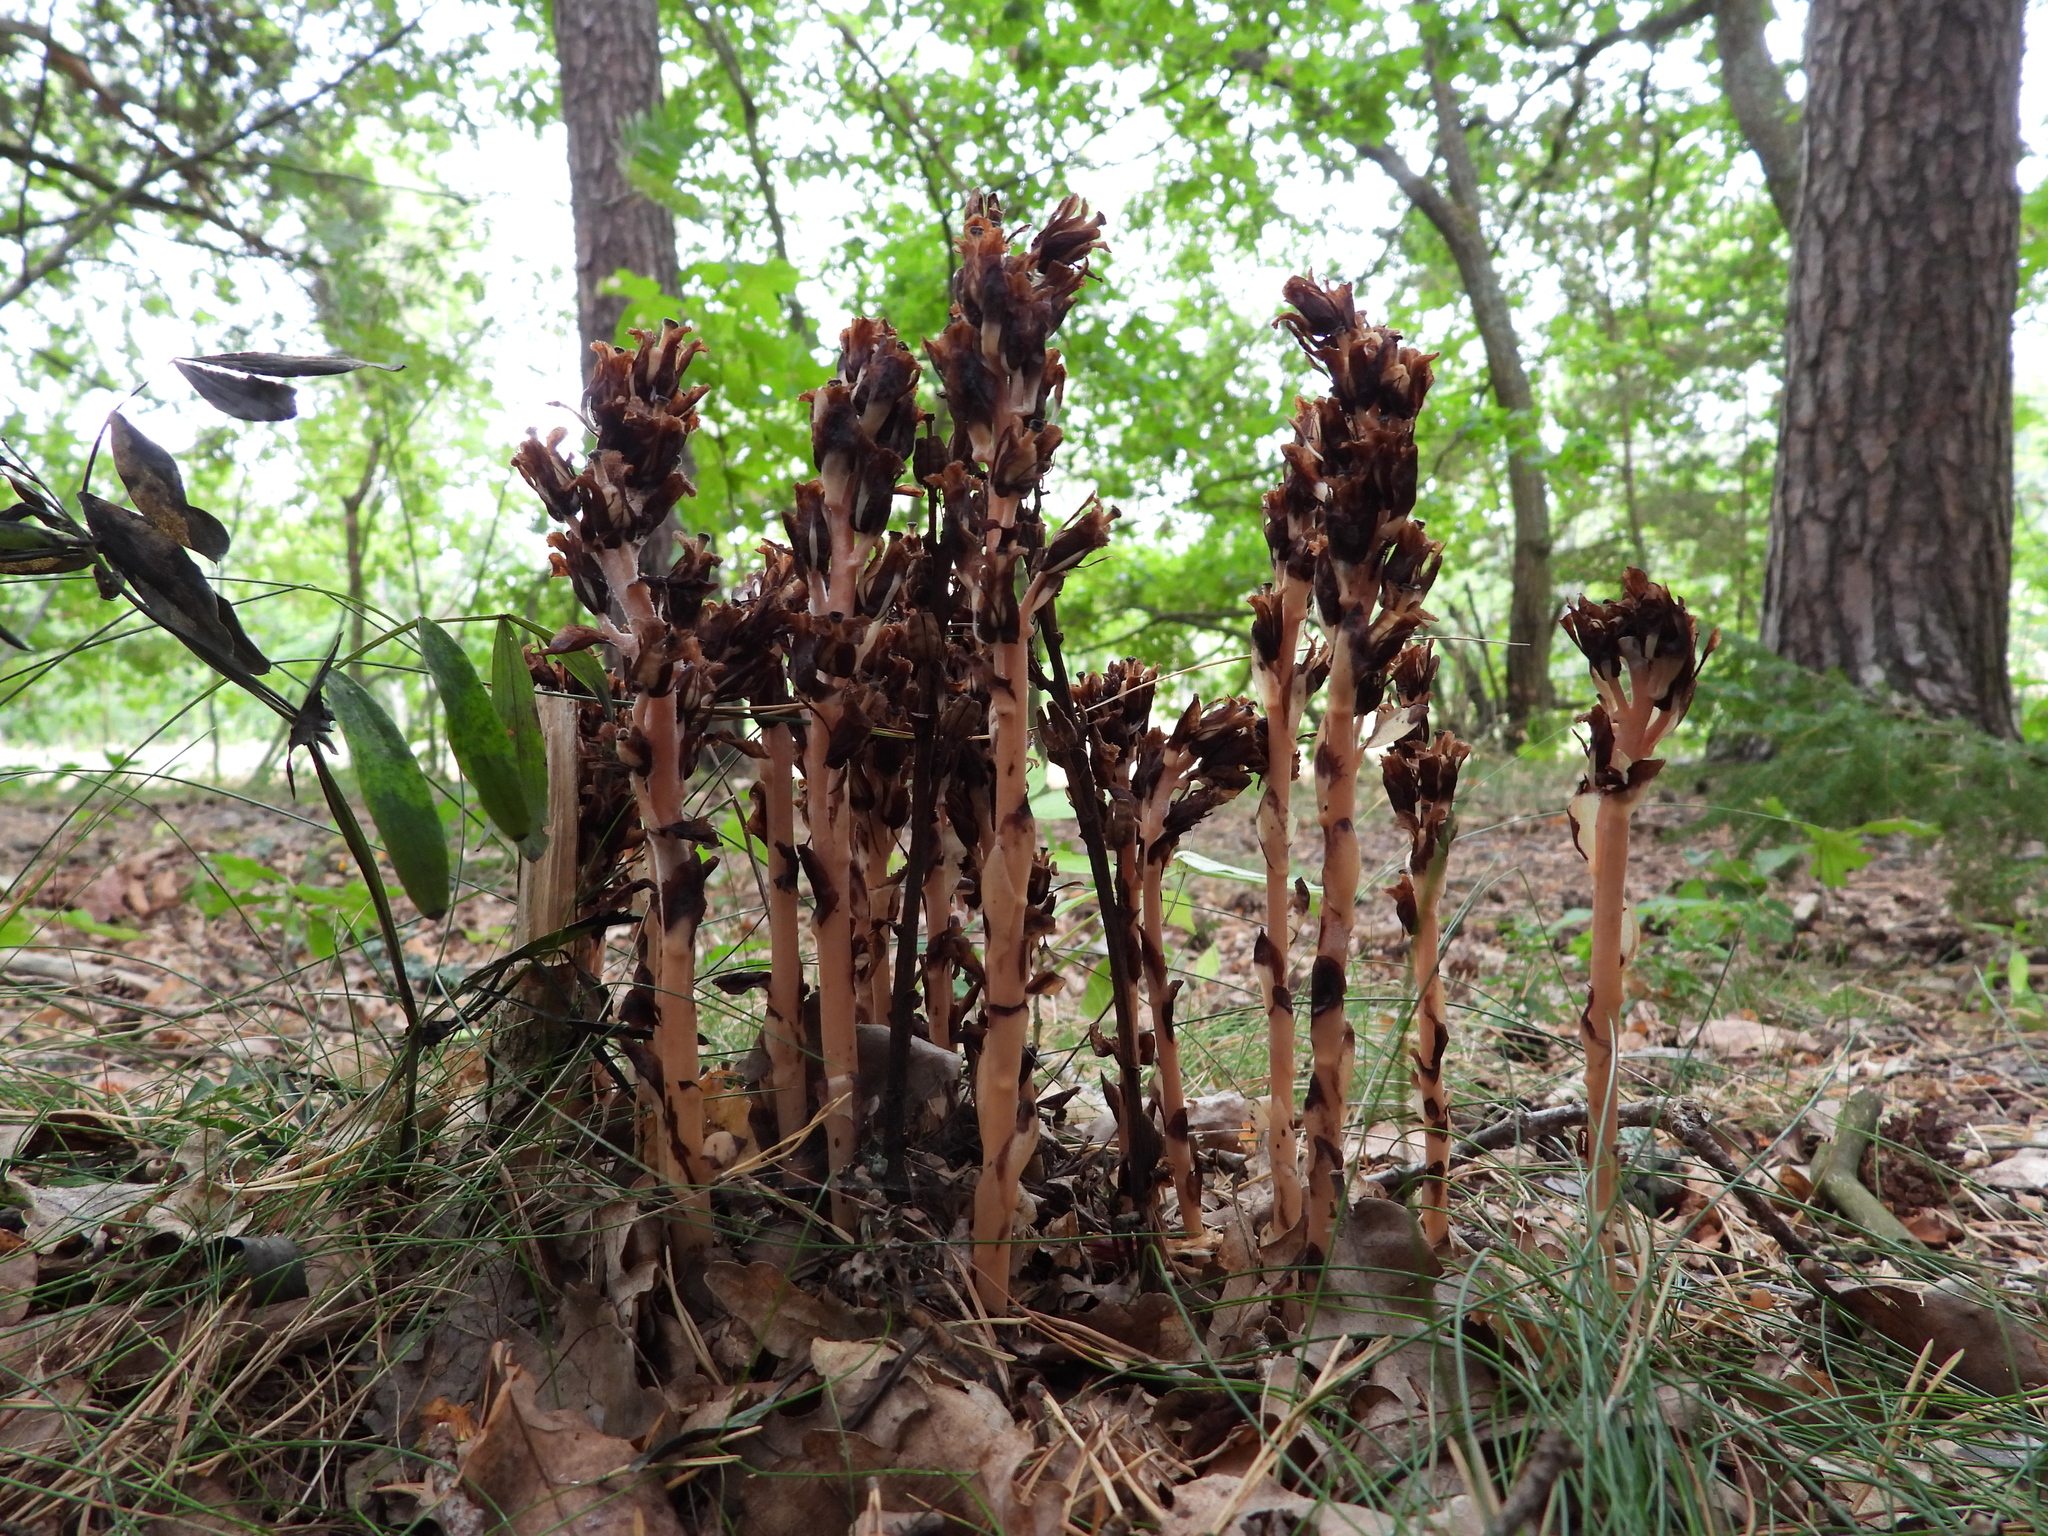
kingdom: Plantae
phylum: Tracheophyta
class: Magnoliopsida
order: Ericales
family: Ericaceae
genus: Hypopitys
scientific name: Hypopitys monotropa
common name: Yellow bird's-nest
